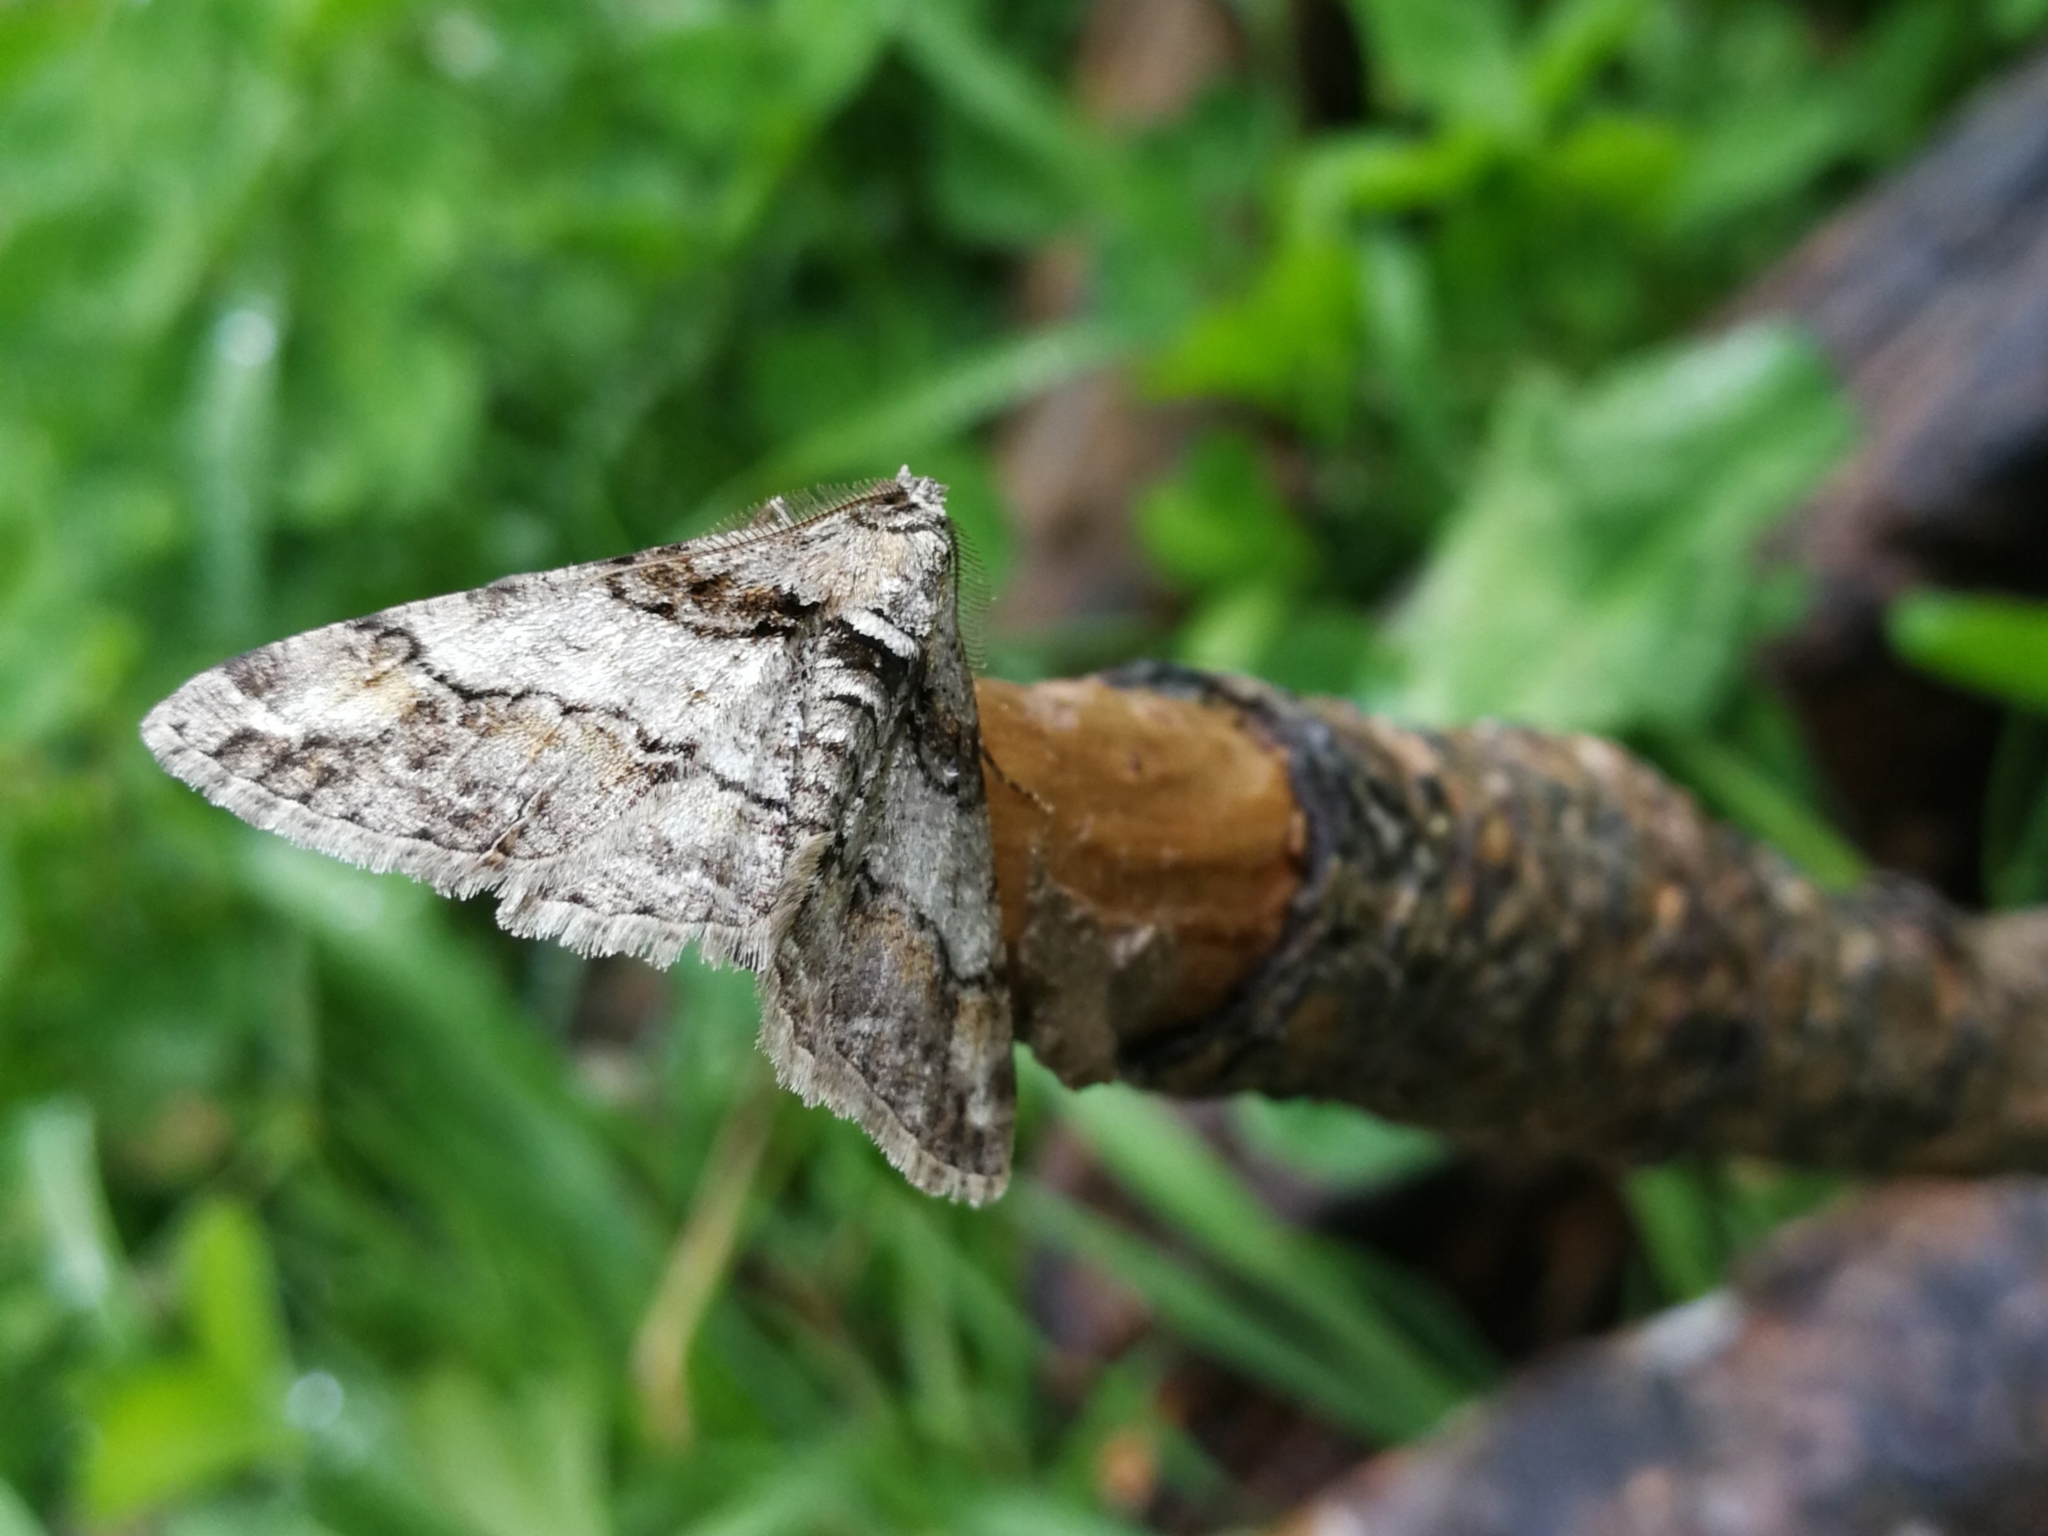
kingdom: Animalia
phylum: Arthropoda
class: Insecta
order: Lepidoptera
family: Geometridae
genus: Cleora
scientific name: Cleora cinctaria
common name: Ringed carpet
